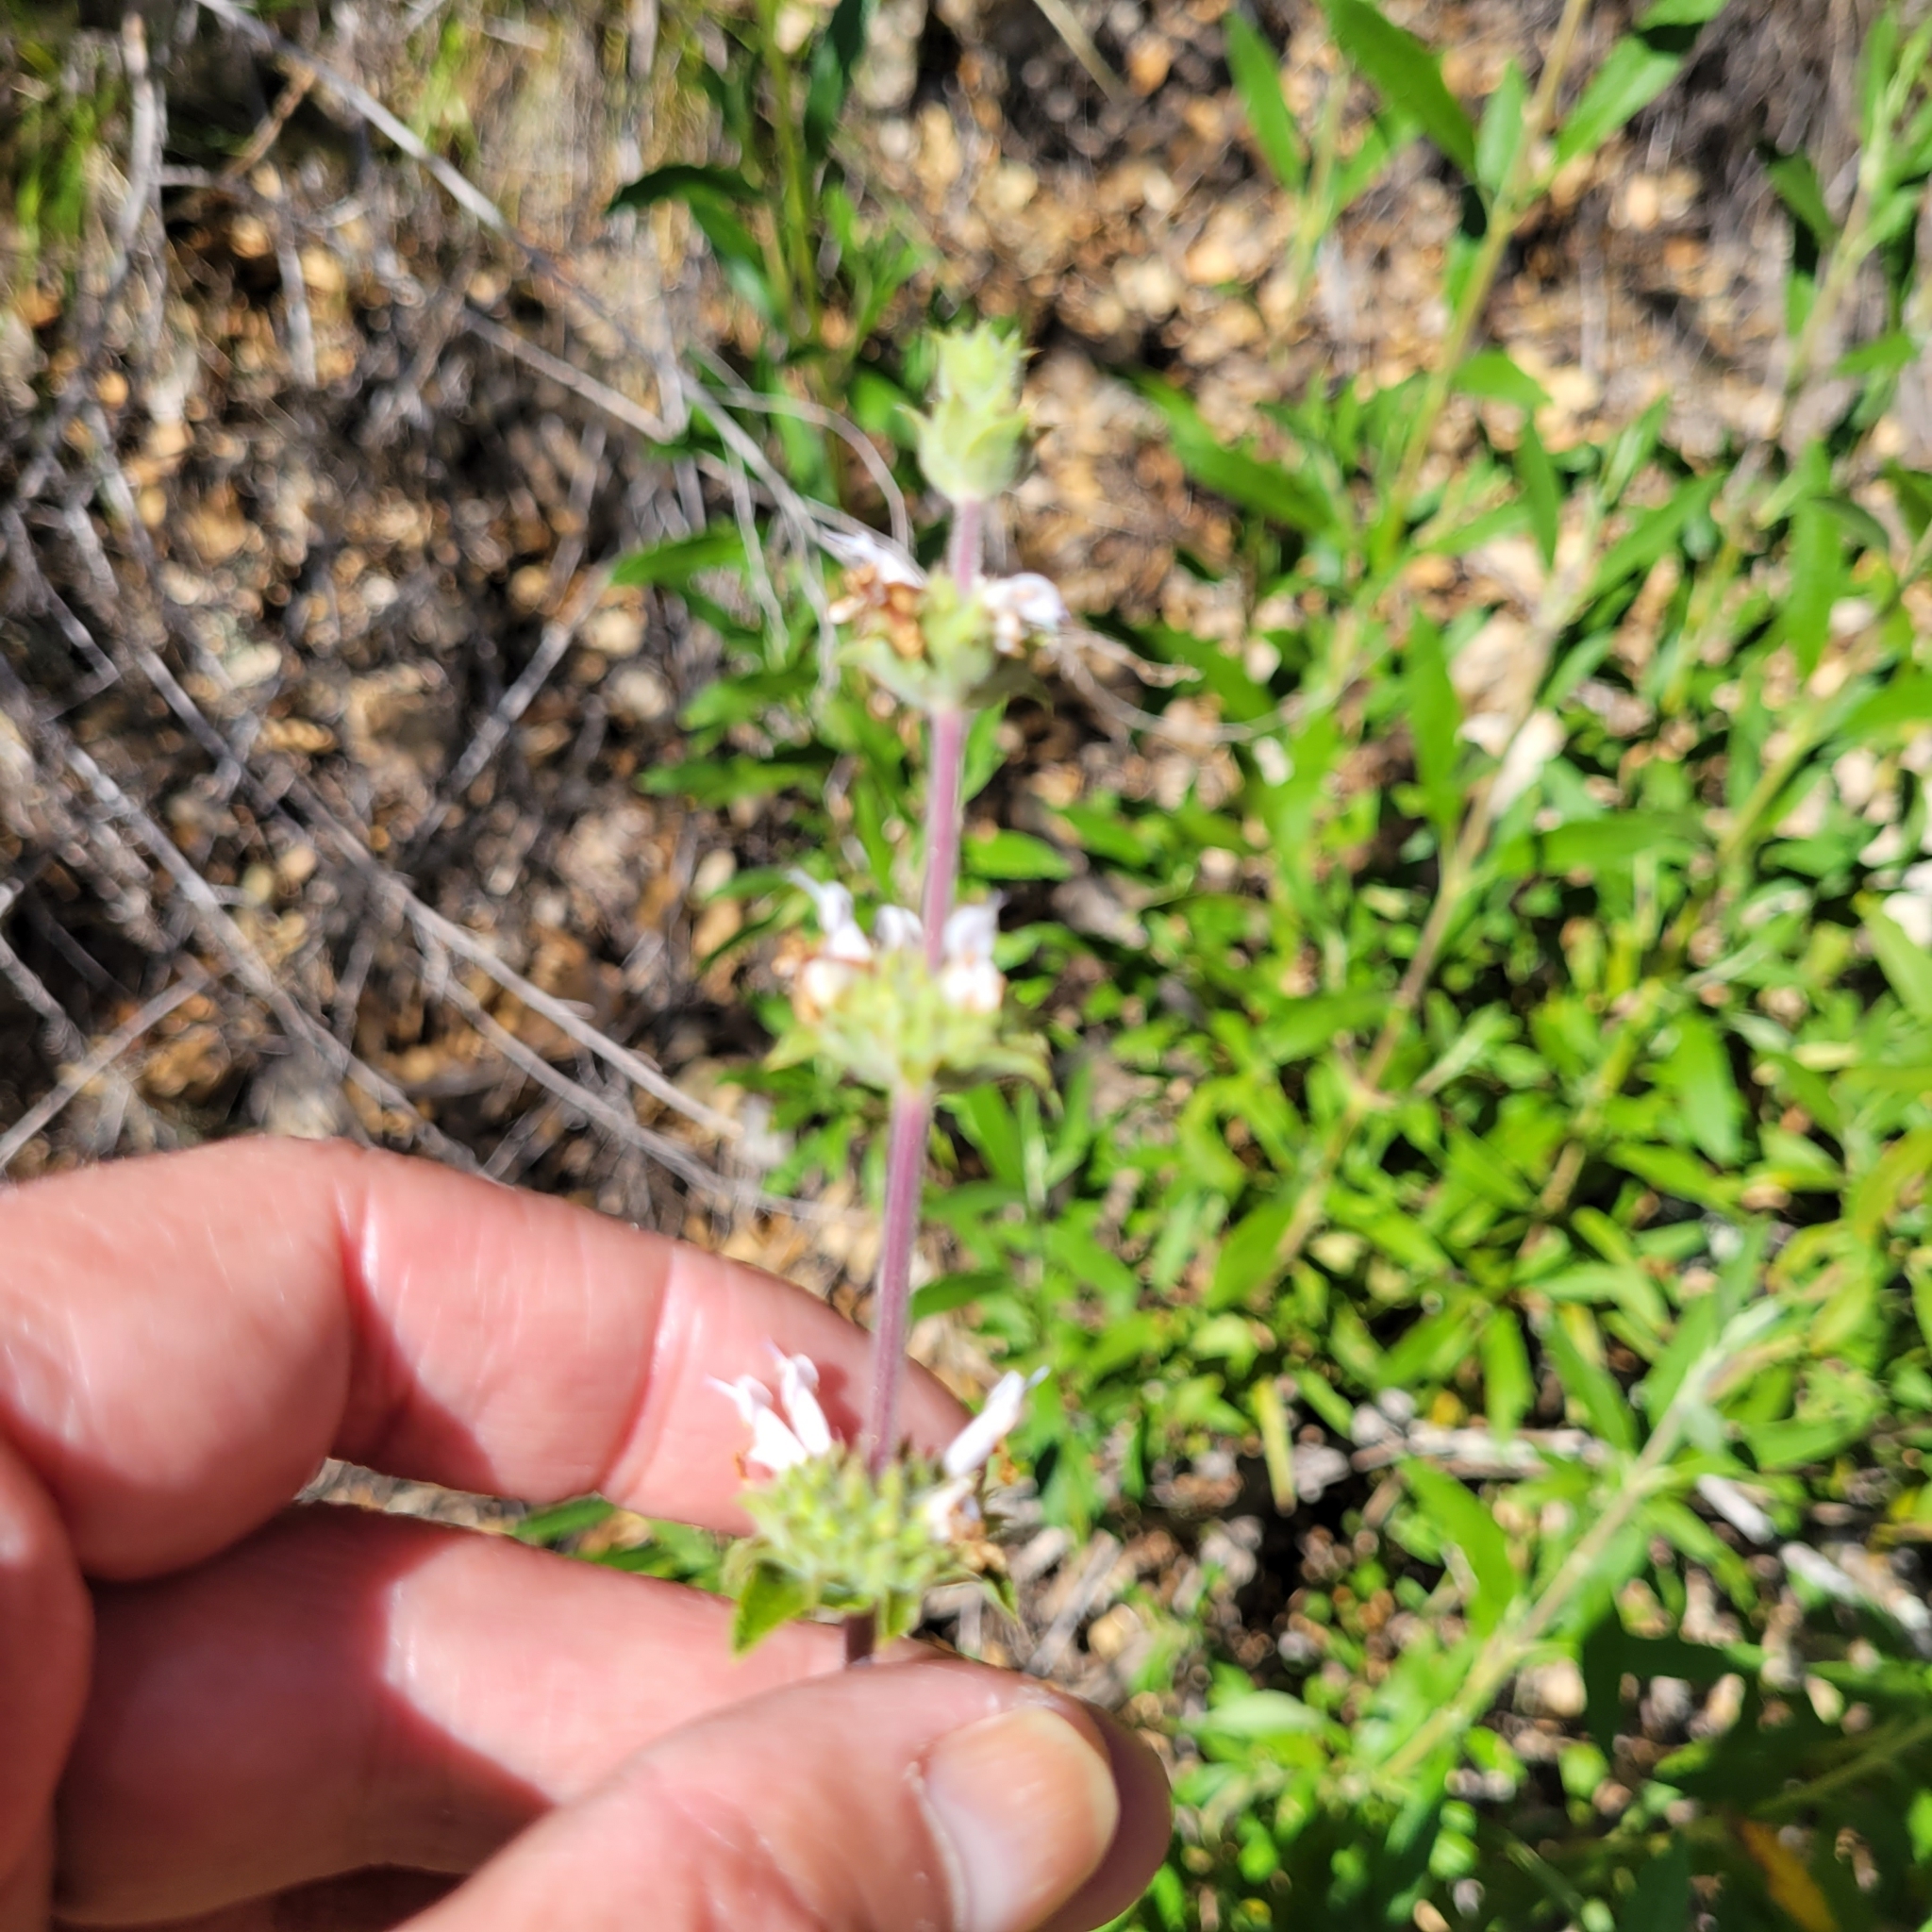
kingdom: Plantae
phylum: Tracheophyta
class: Magnoliopsida
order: Lamiales
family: Lamiaceae
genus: Salvia
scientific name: Salvia mellifera
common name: Black sage
